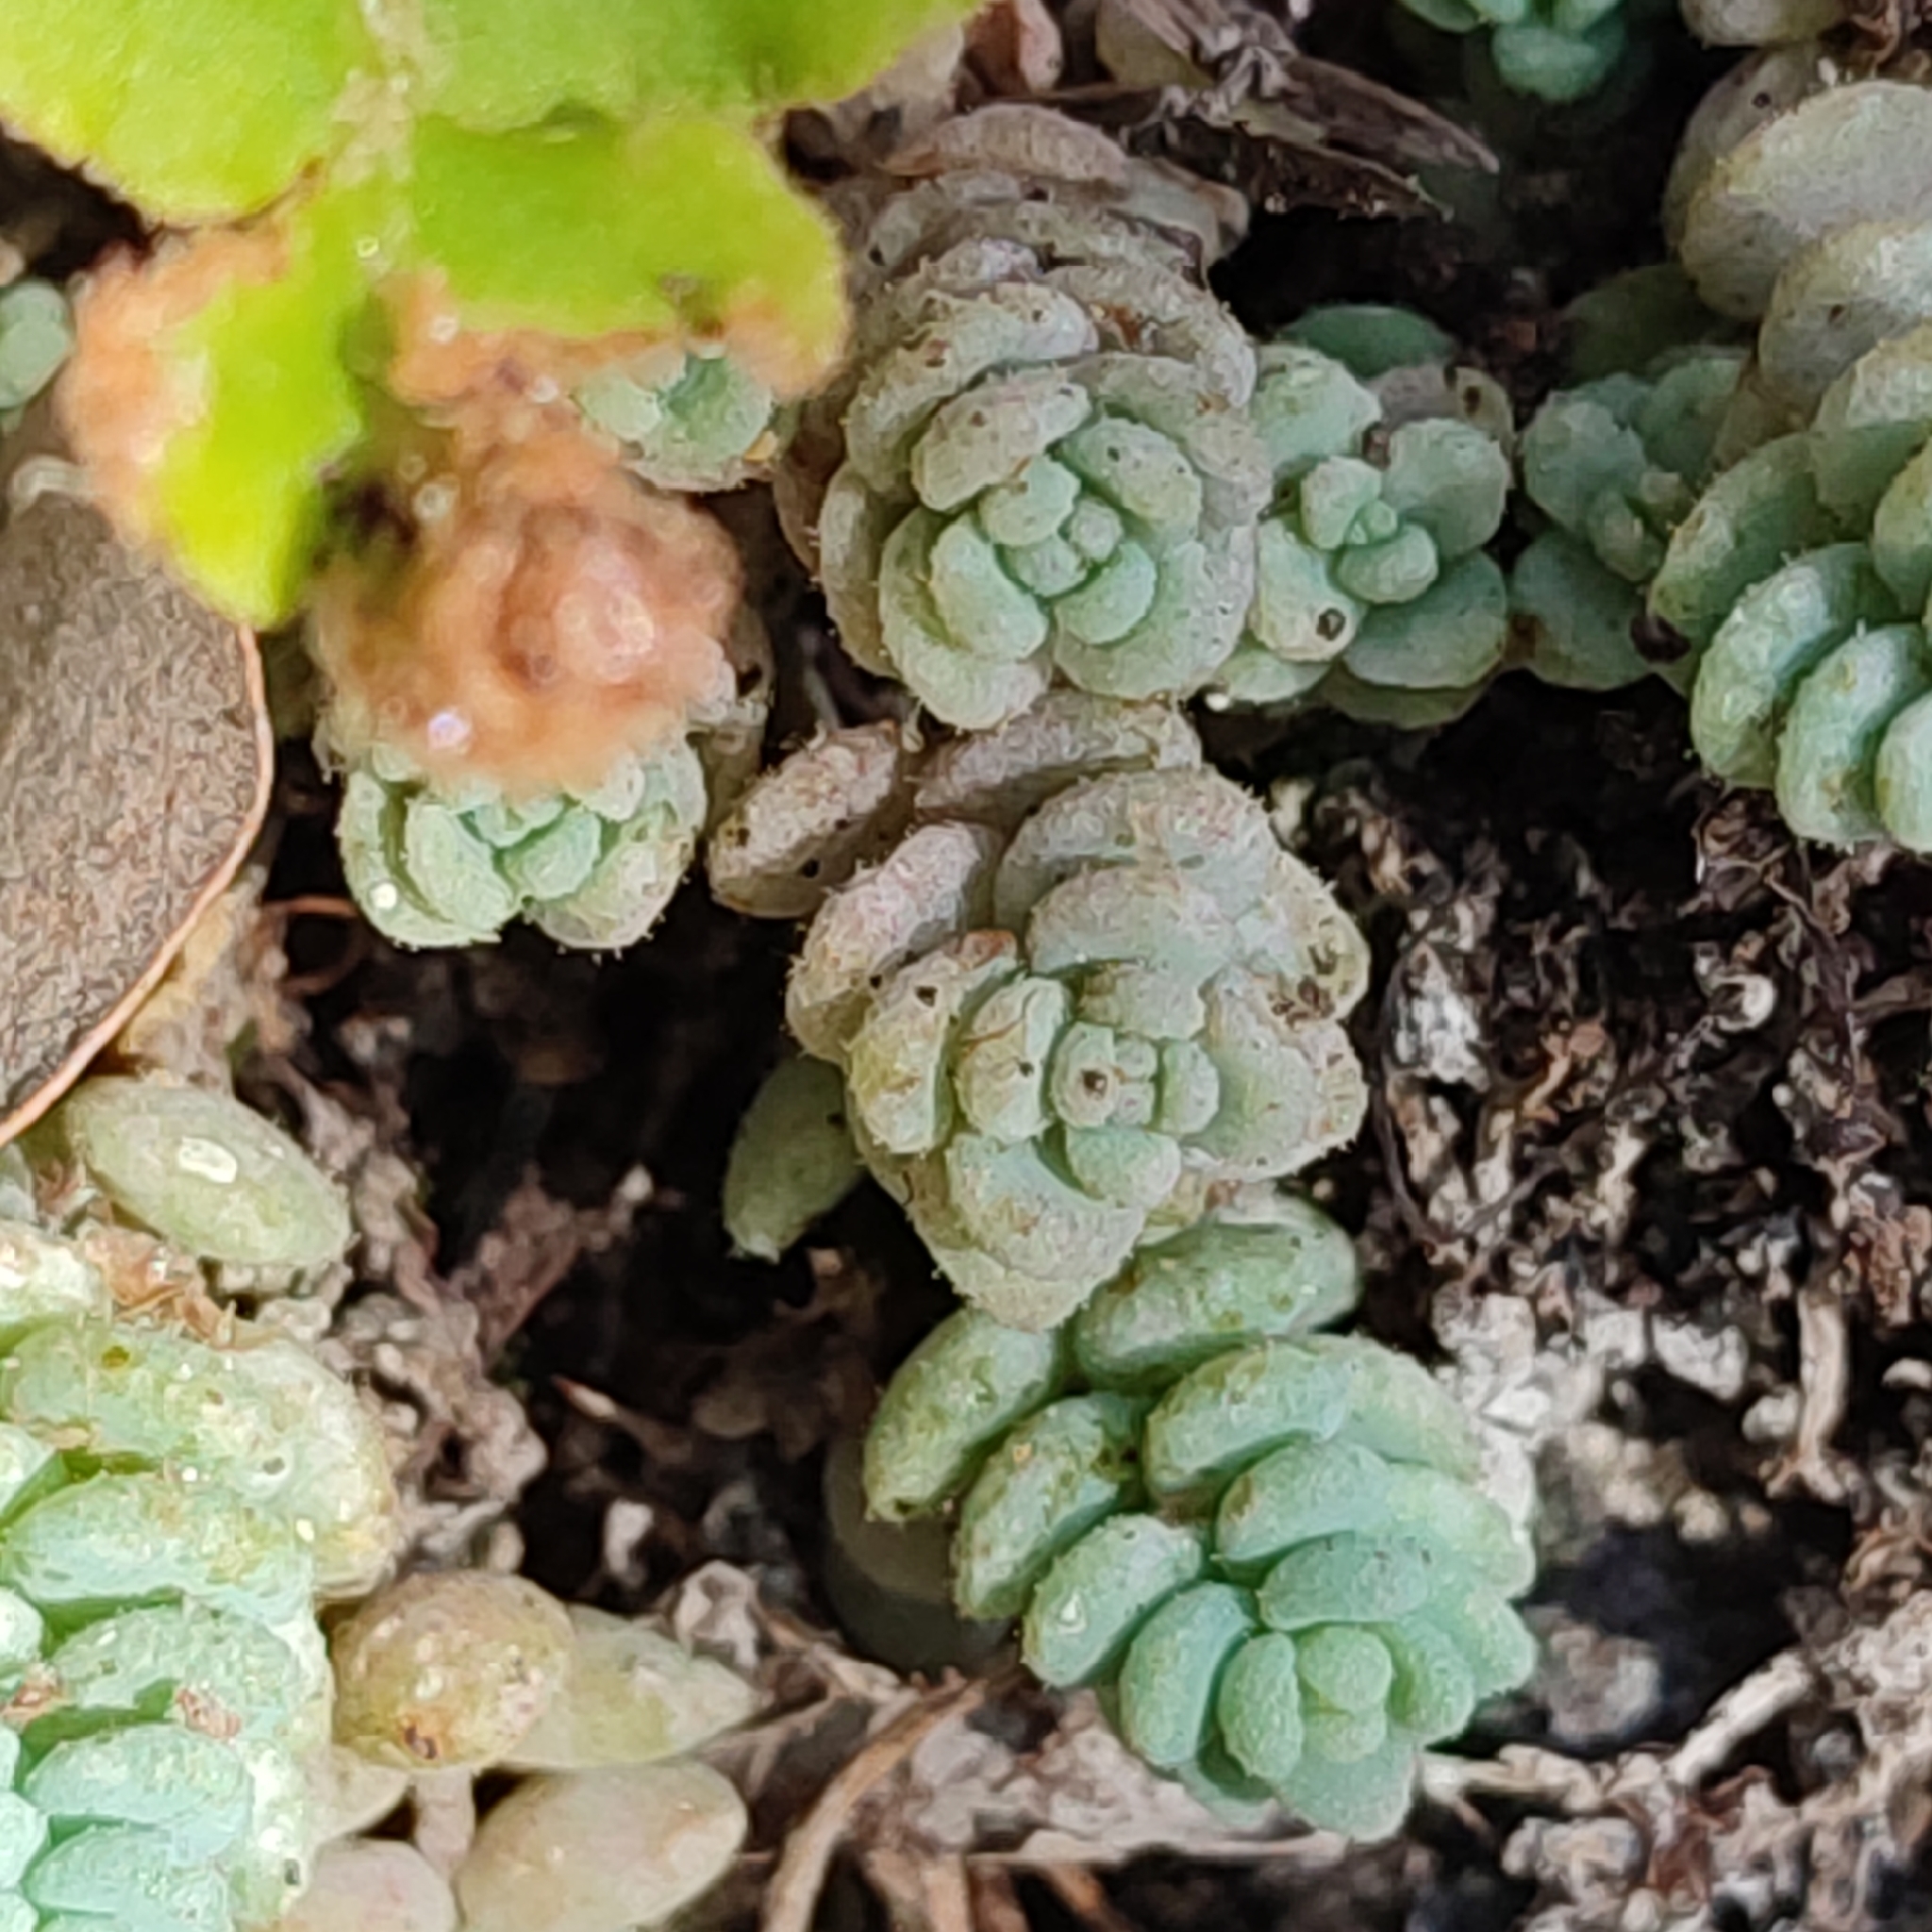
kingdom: Plantae
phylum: Tracheophyta
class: Magnoliopsida
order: Saxifragales
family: Crassulaceae
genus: Sedum
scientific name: Sedum dasyphyllum
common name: Thick-leaf stonecrop
